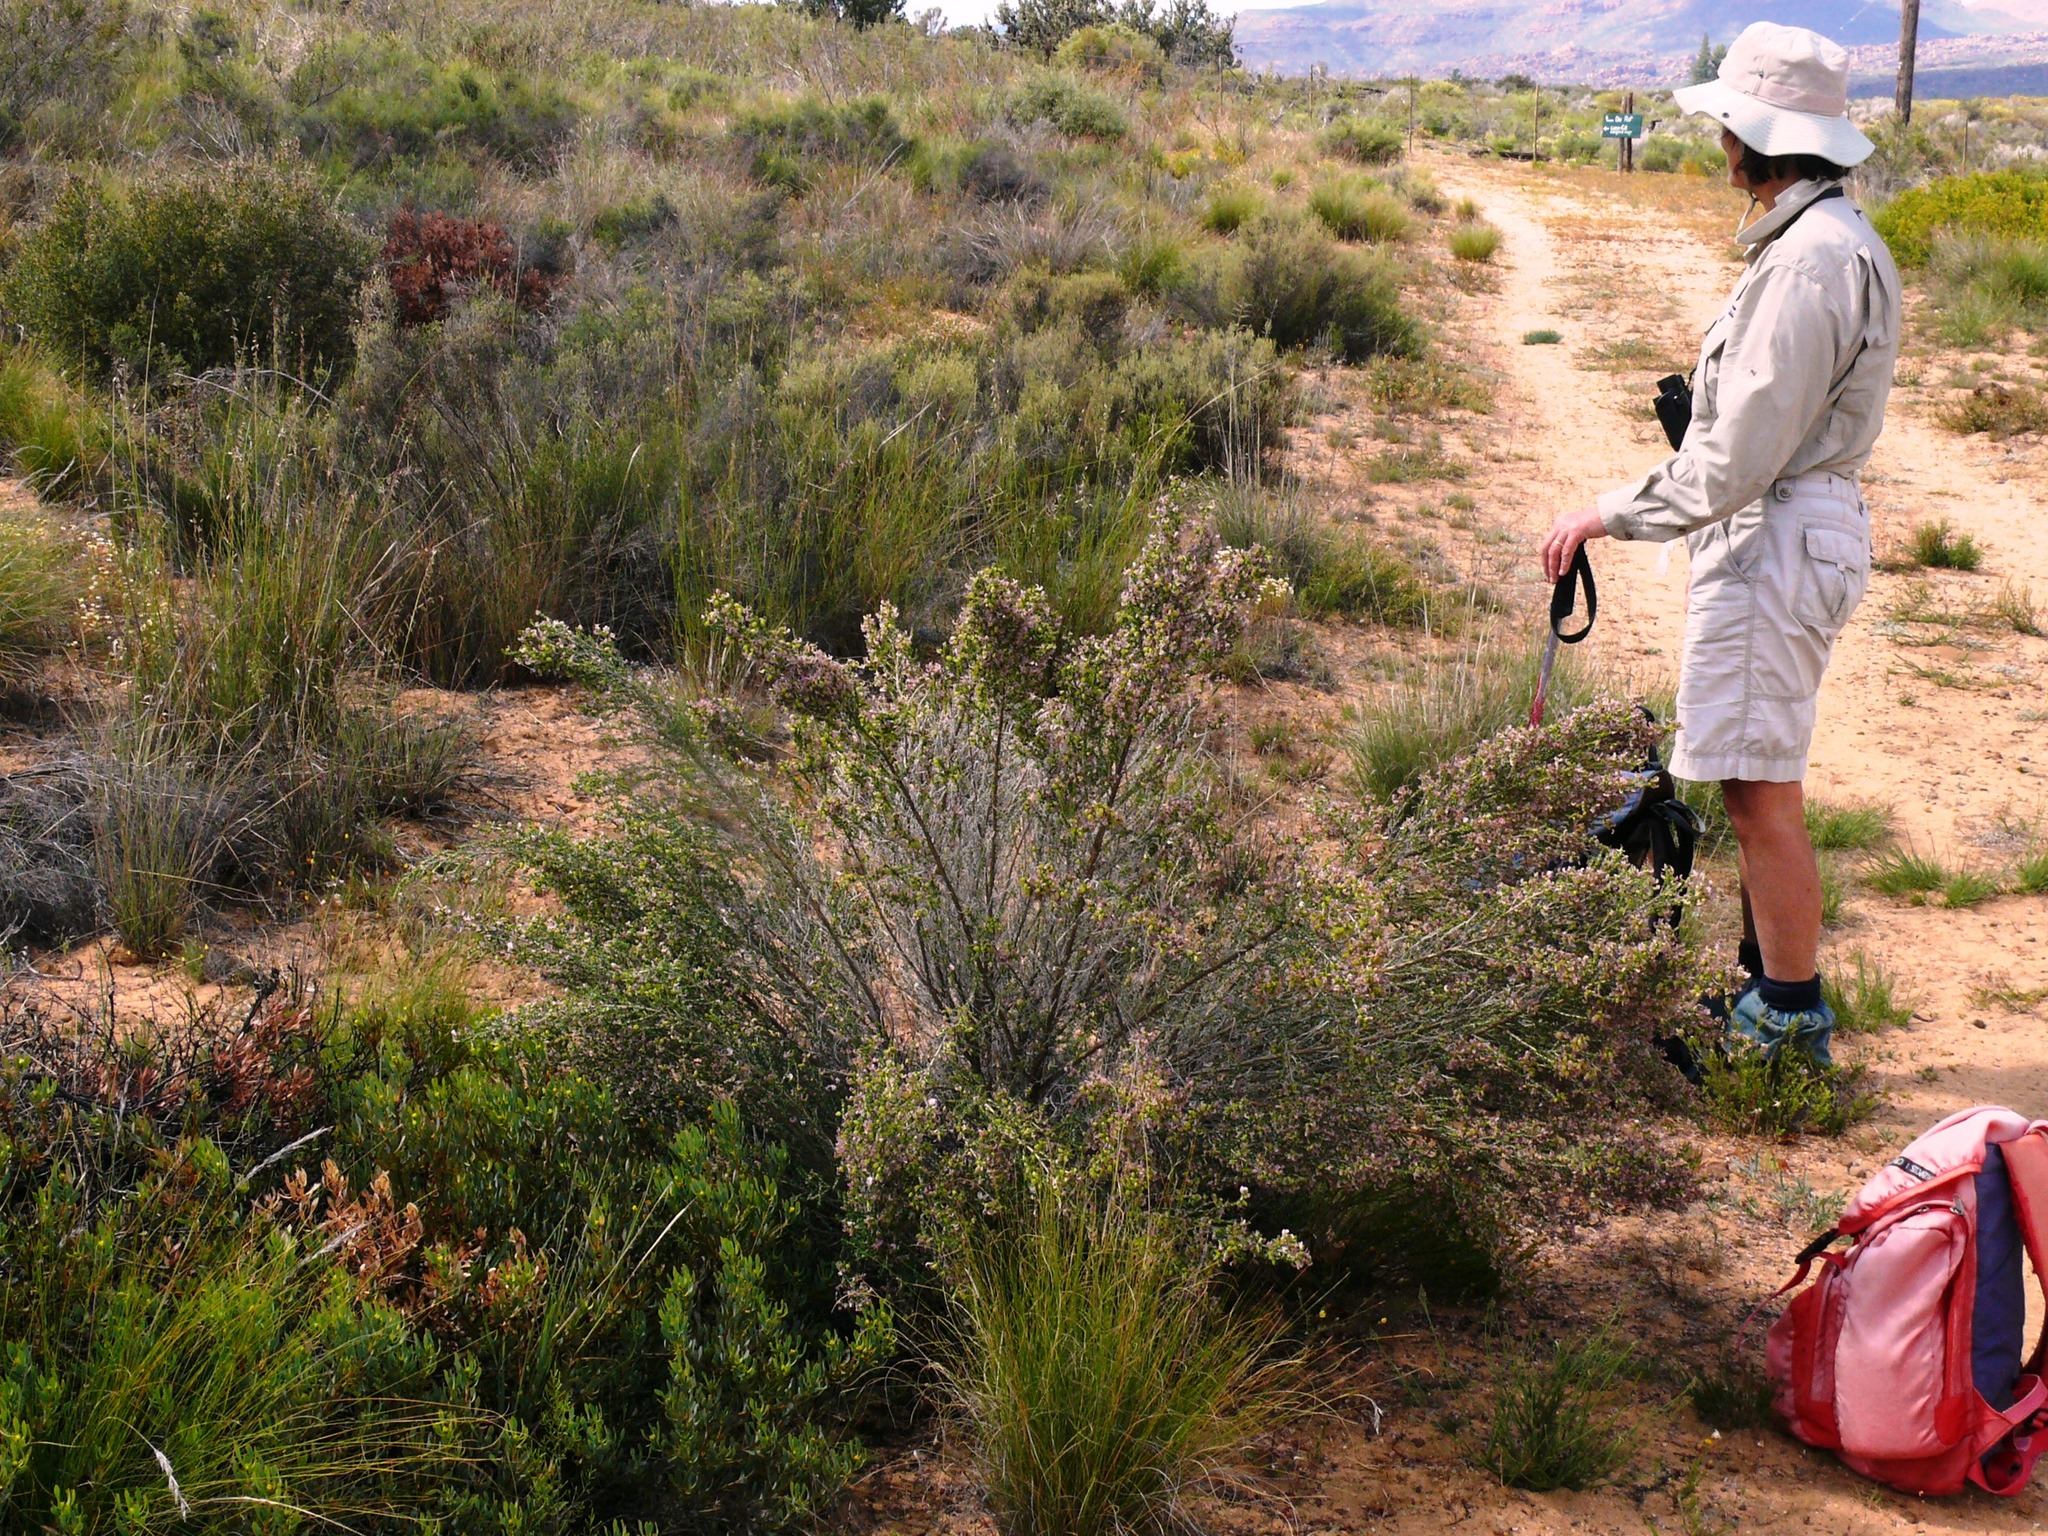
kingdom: Plantae
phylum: Tracheophyta
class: Magnoliopsida
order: Fabales
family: Fabaceae
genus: Aspalathus
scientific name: Aspalathus costulata
